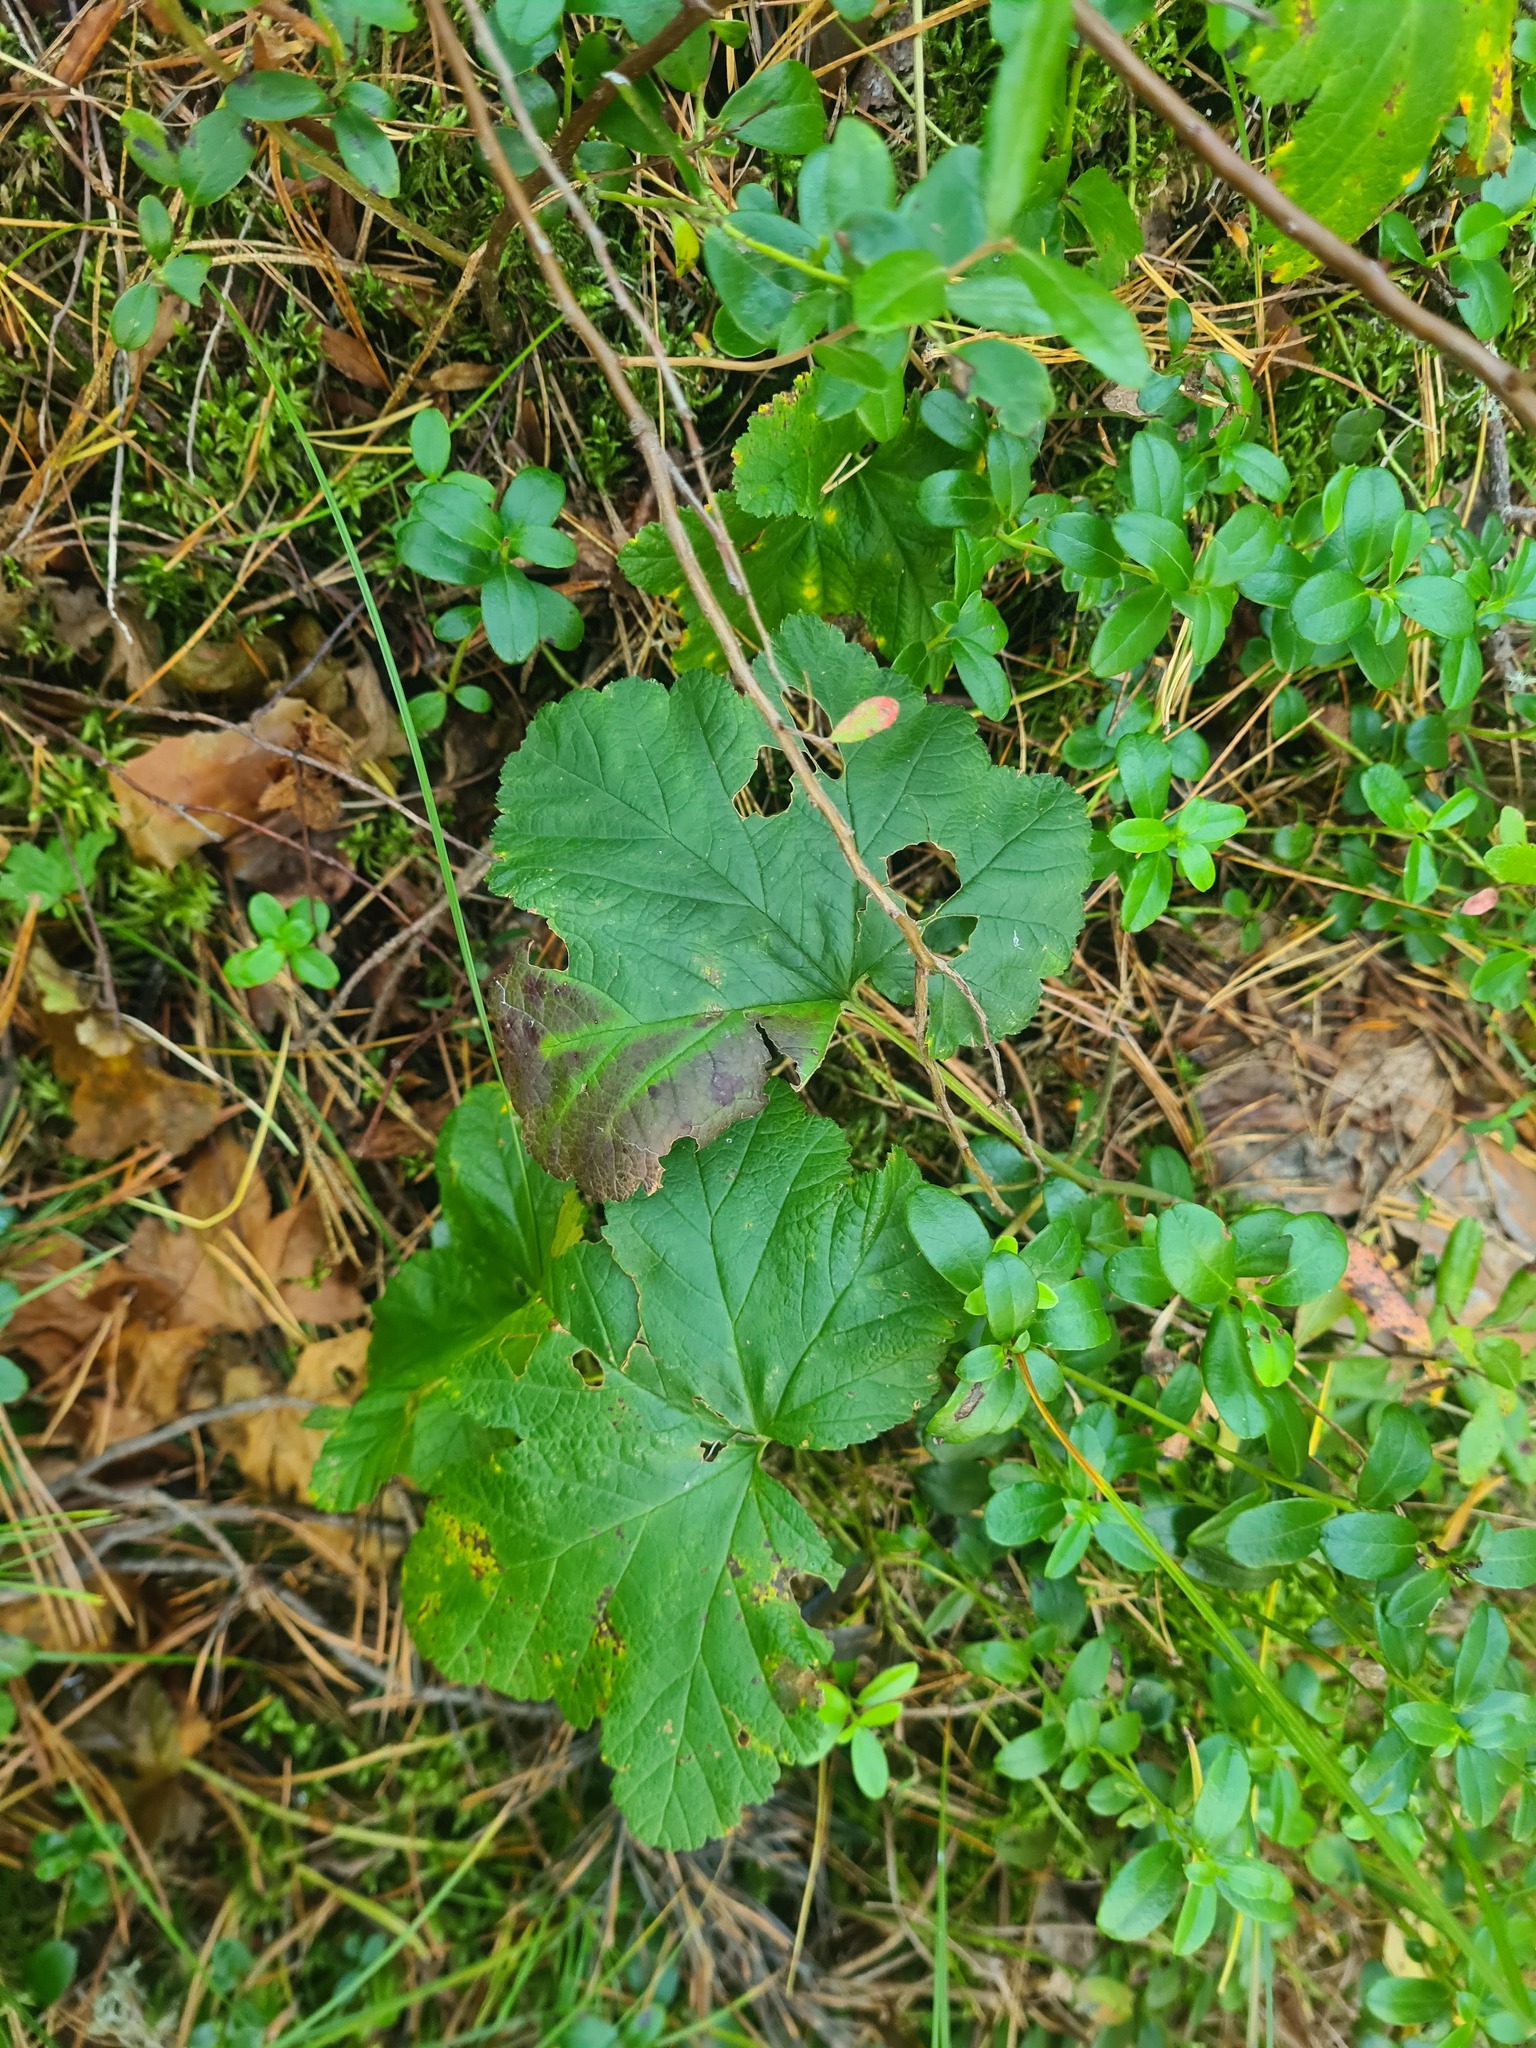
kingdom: Plantae
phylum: Tracheophyta
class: Magnoliopsida
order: Rosales
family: Rosaceae
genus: Rubus
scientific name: Rubus chamaemorus
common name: Cloudberry
